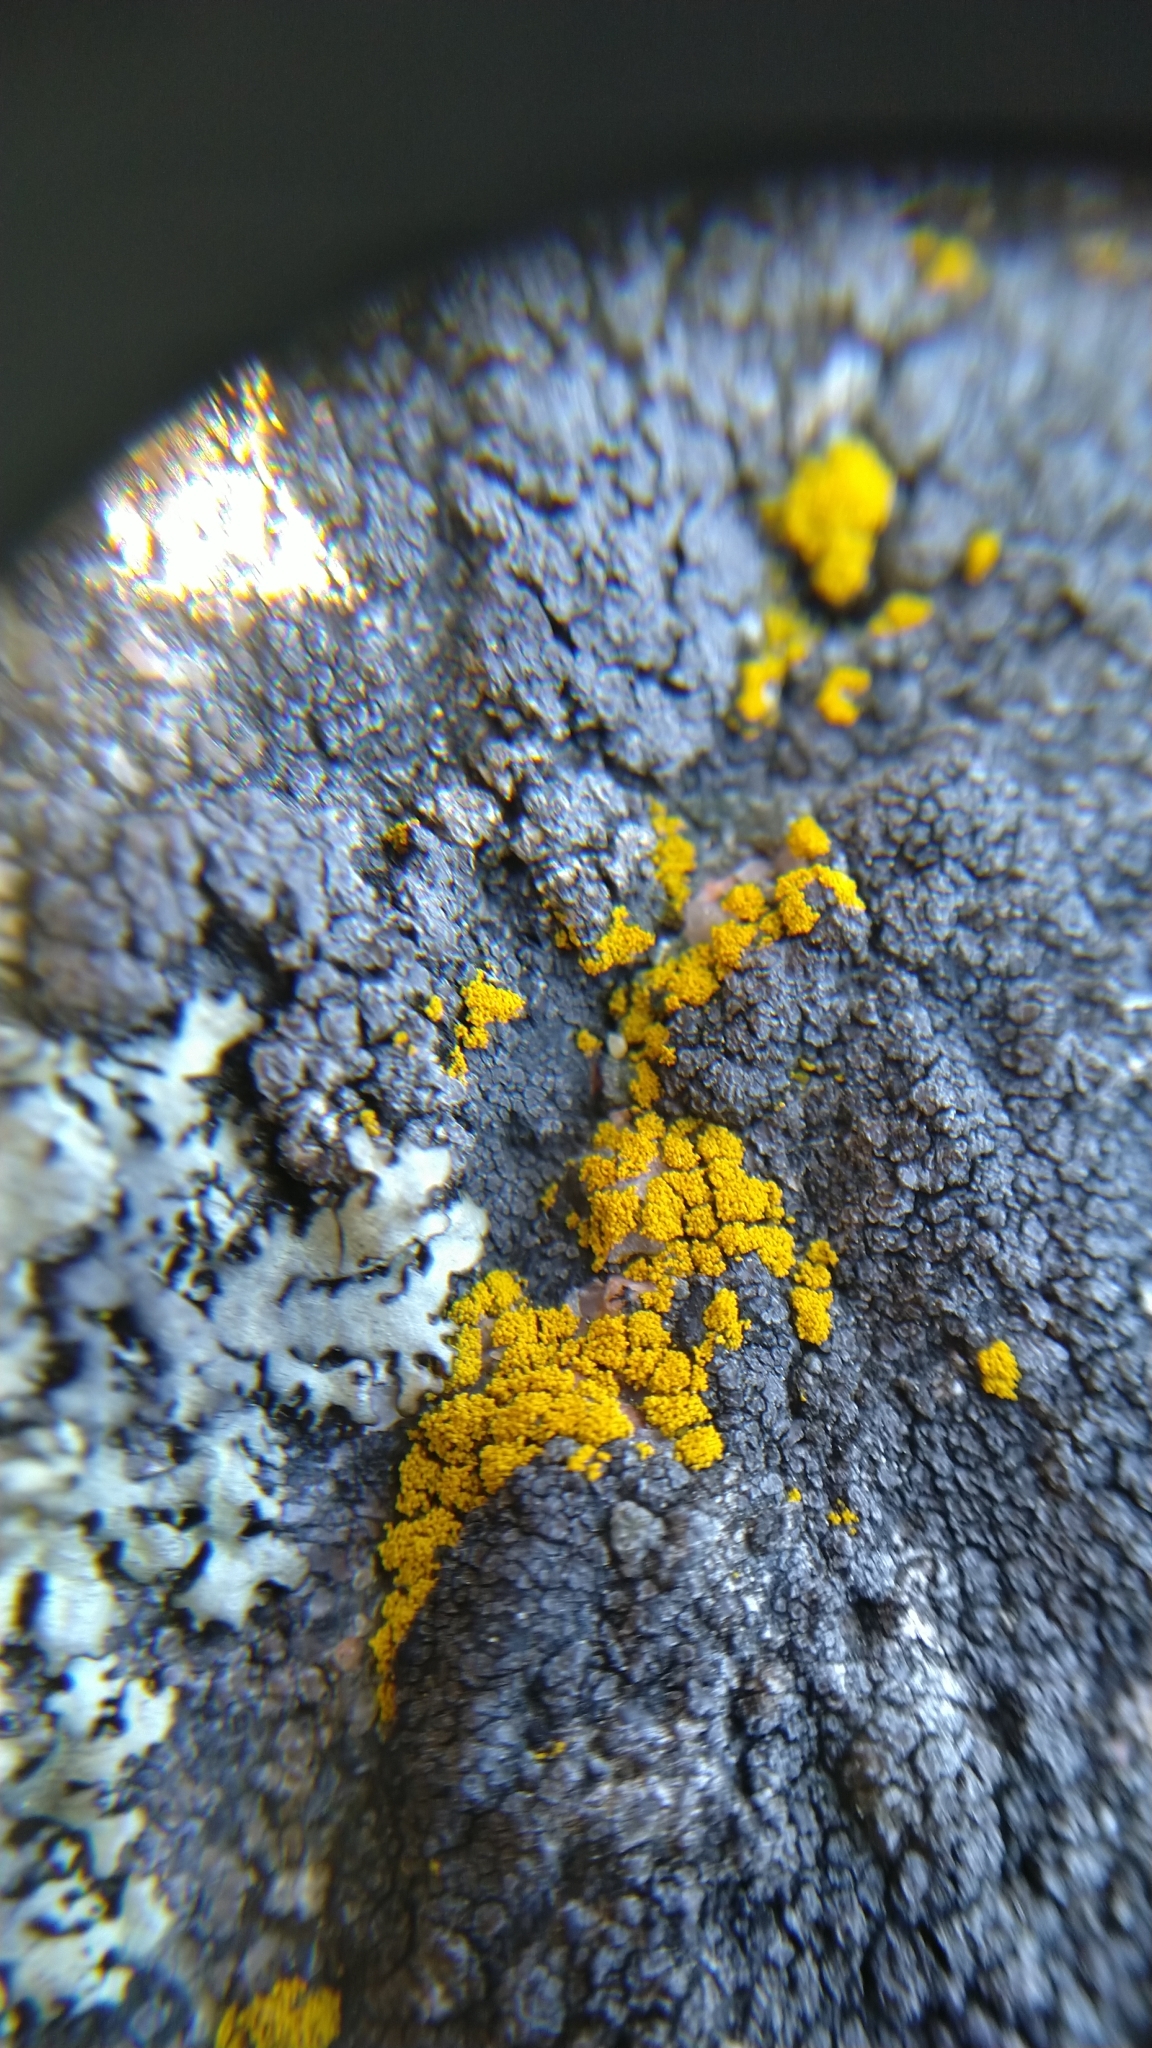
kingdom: Fungi
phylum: Ascomycota
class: Candelariomycetes
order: Candelariales
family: Candelariaceae
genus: Candelariella
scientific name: Candelariella coralliza
